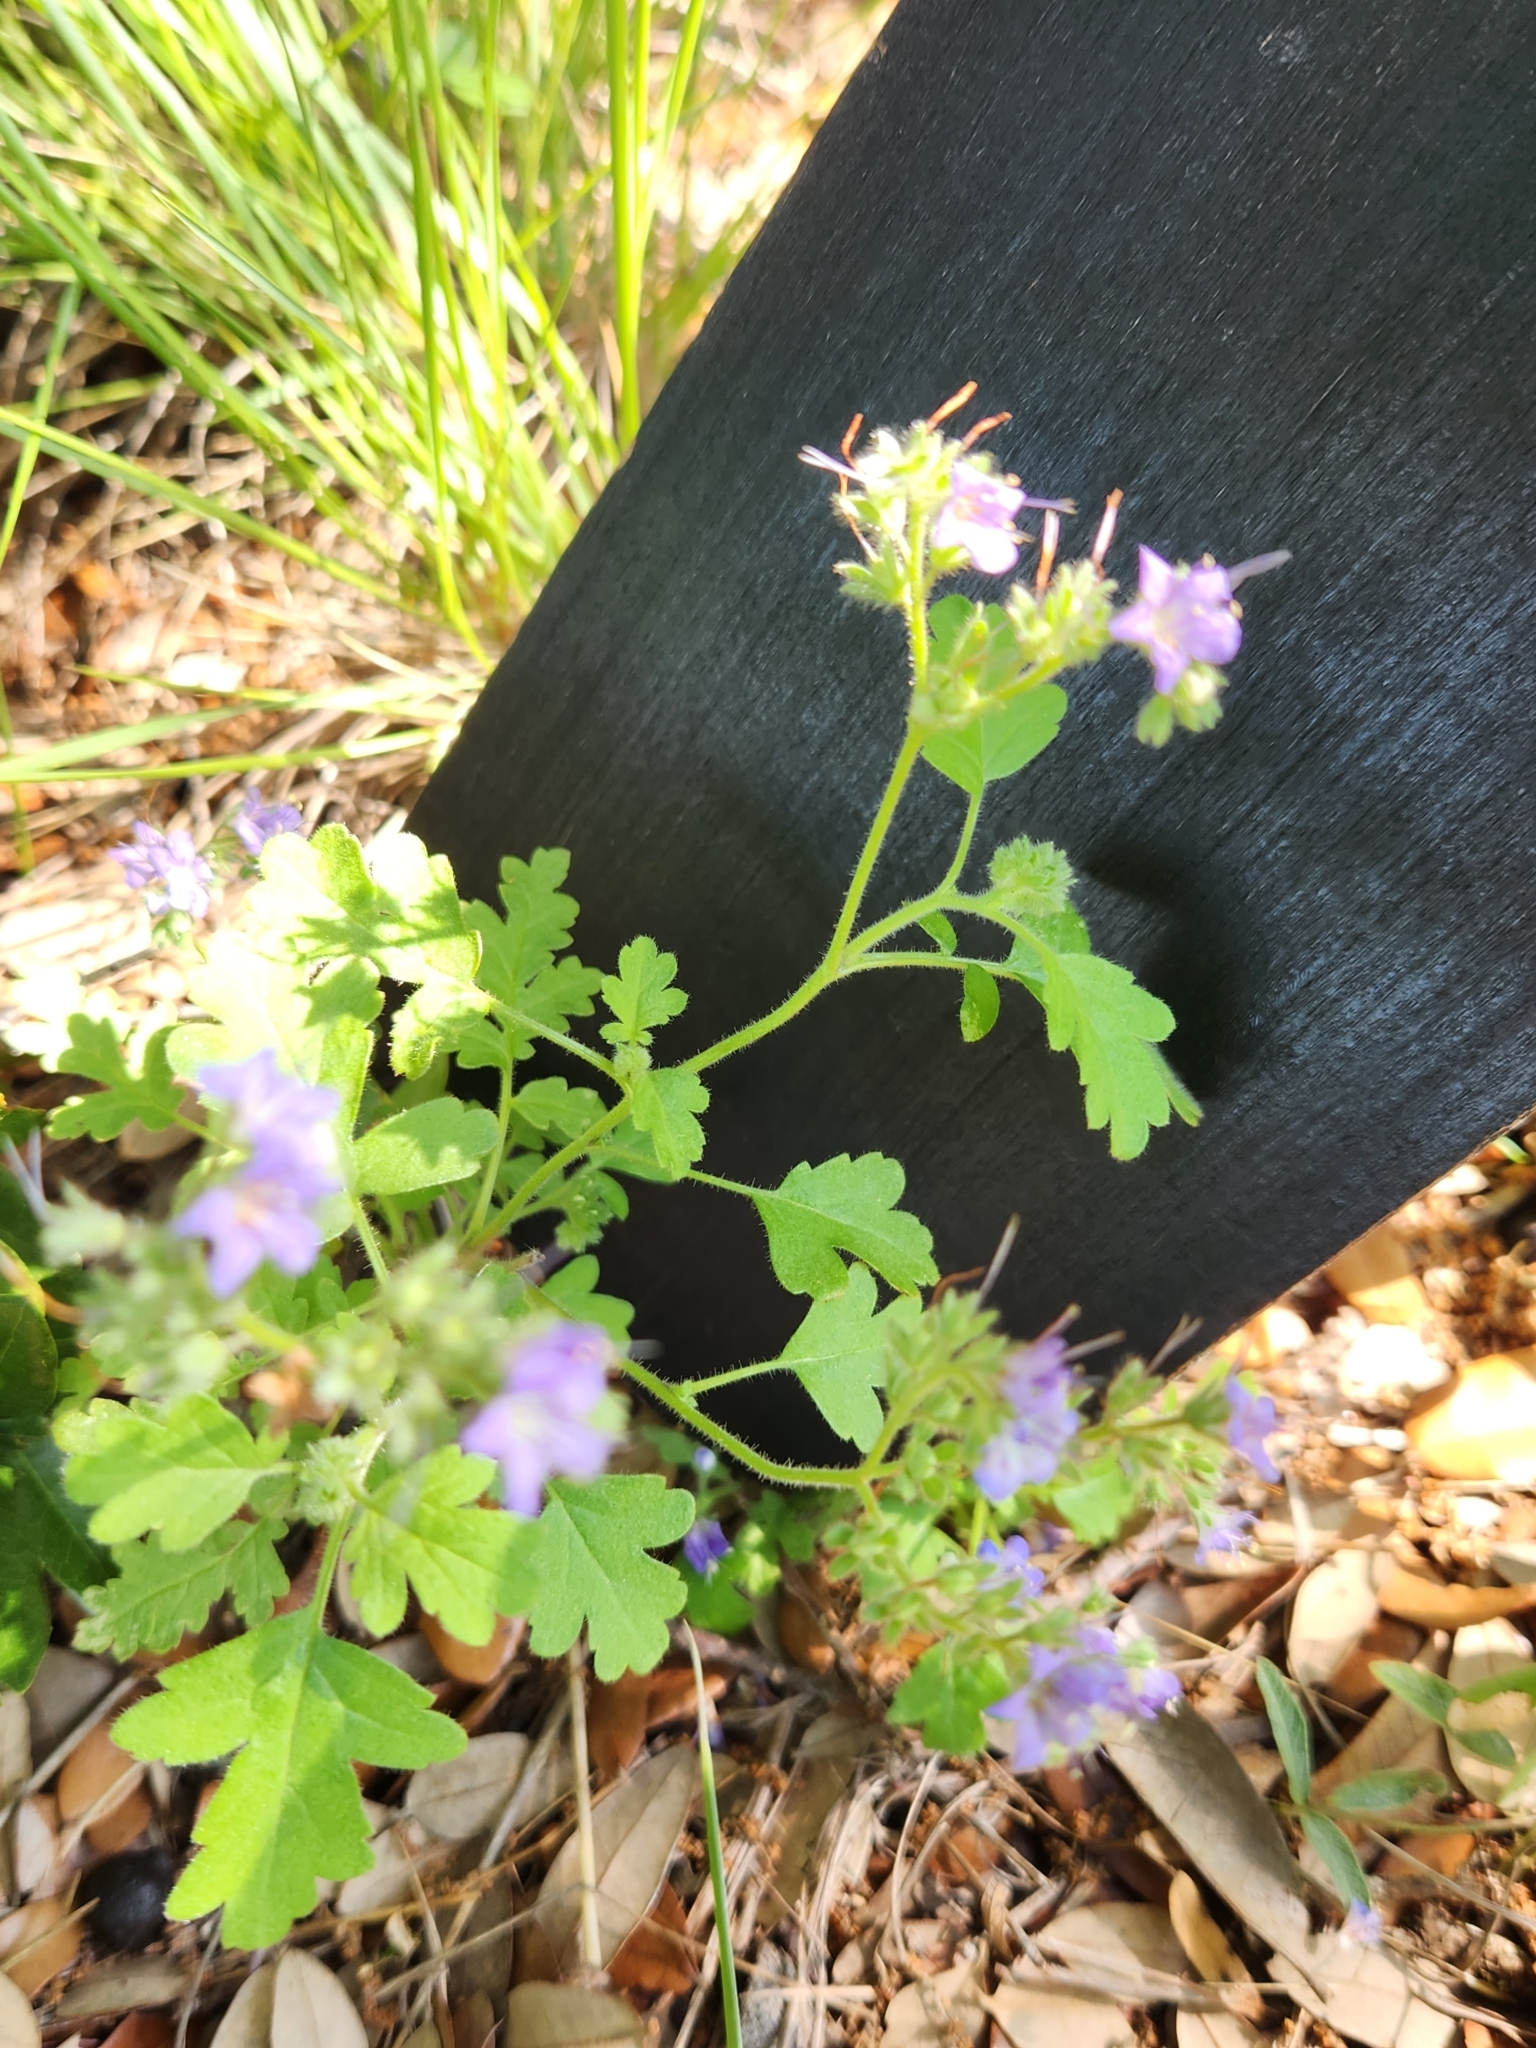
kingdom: Plantae
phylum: Tracheophyta
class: Magnoliopsida
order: Boraginales
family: Hydrophyllaceae
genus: Phacelia
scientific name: Phacelia congesta
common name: Blue curls
